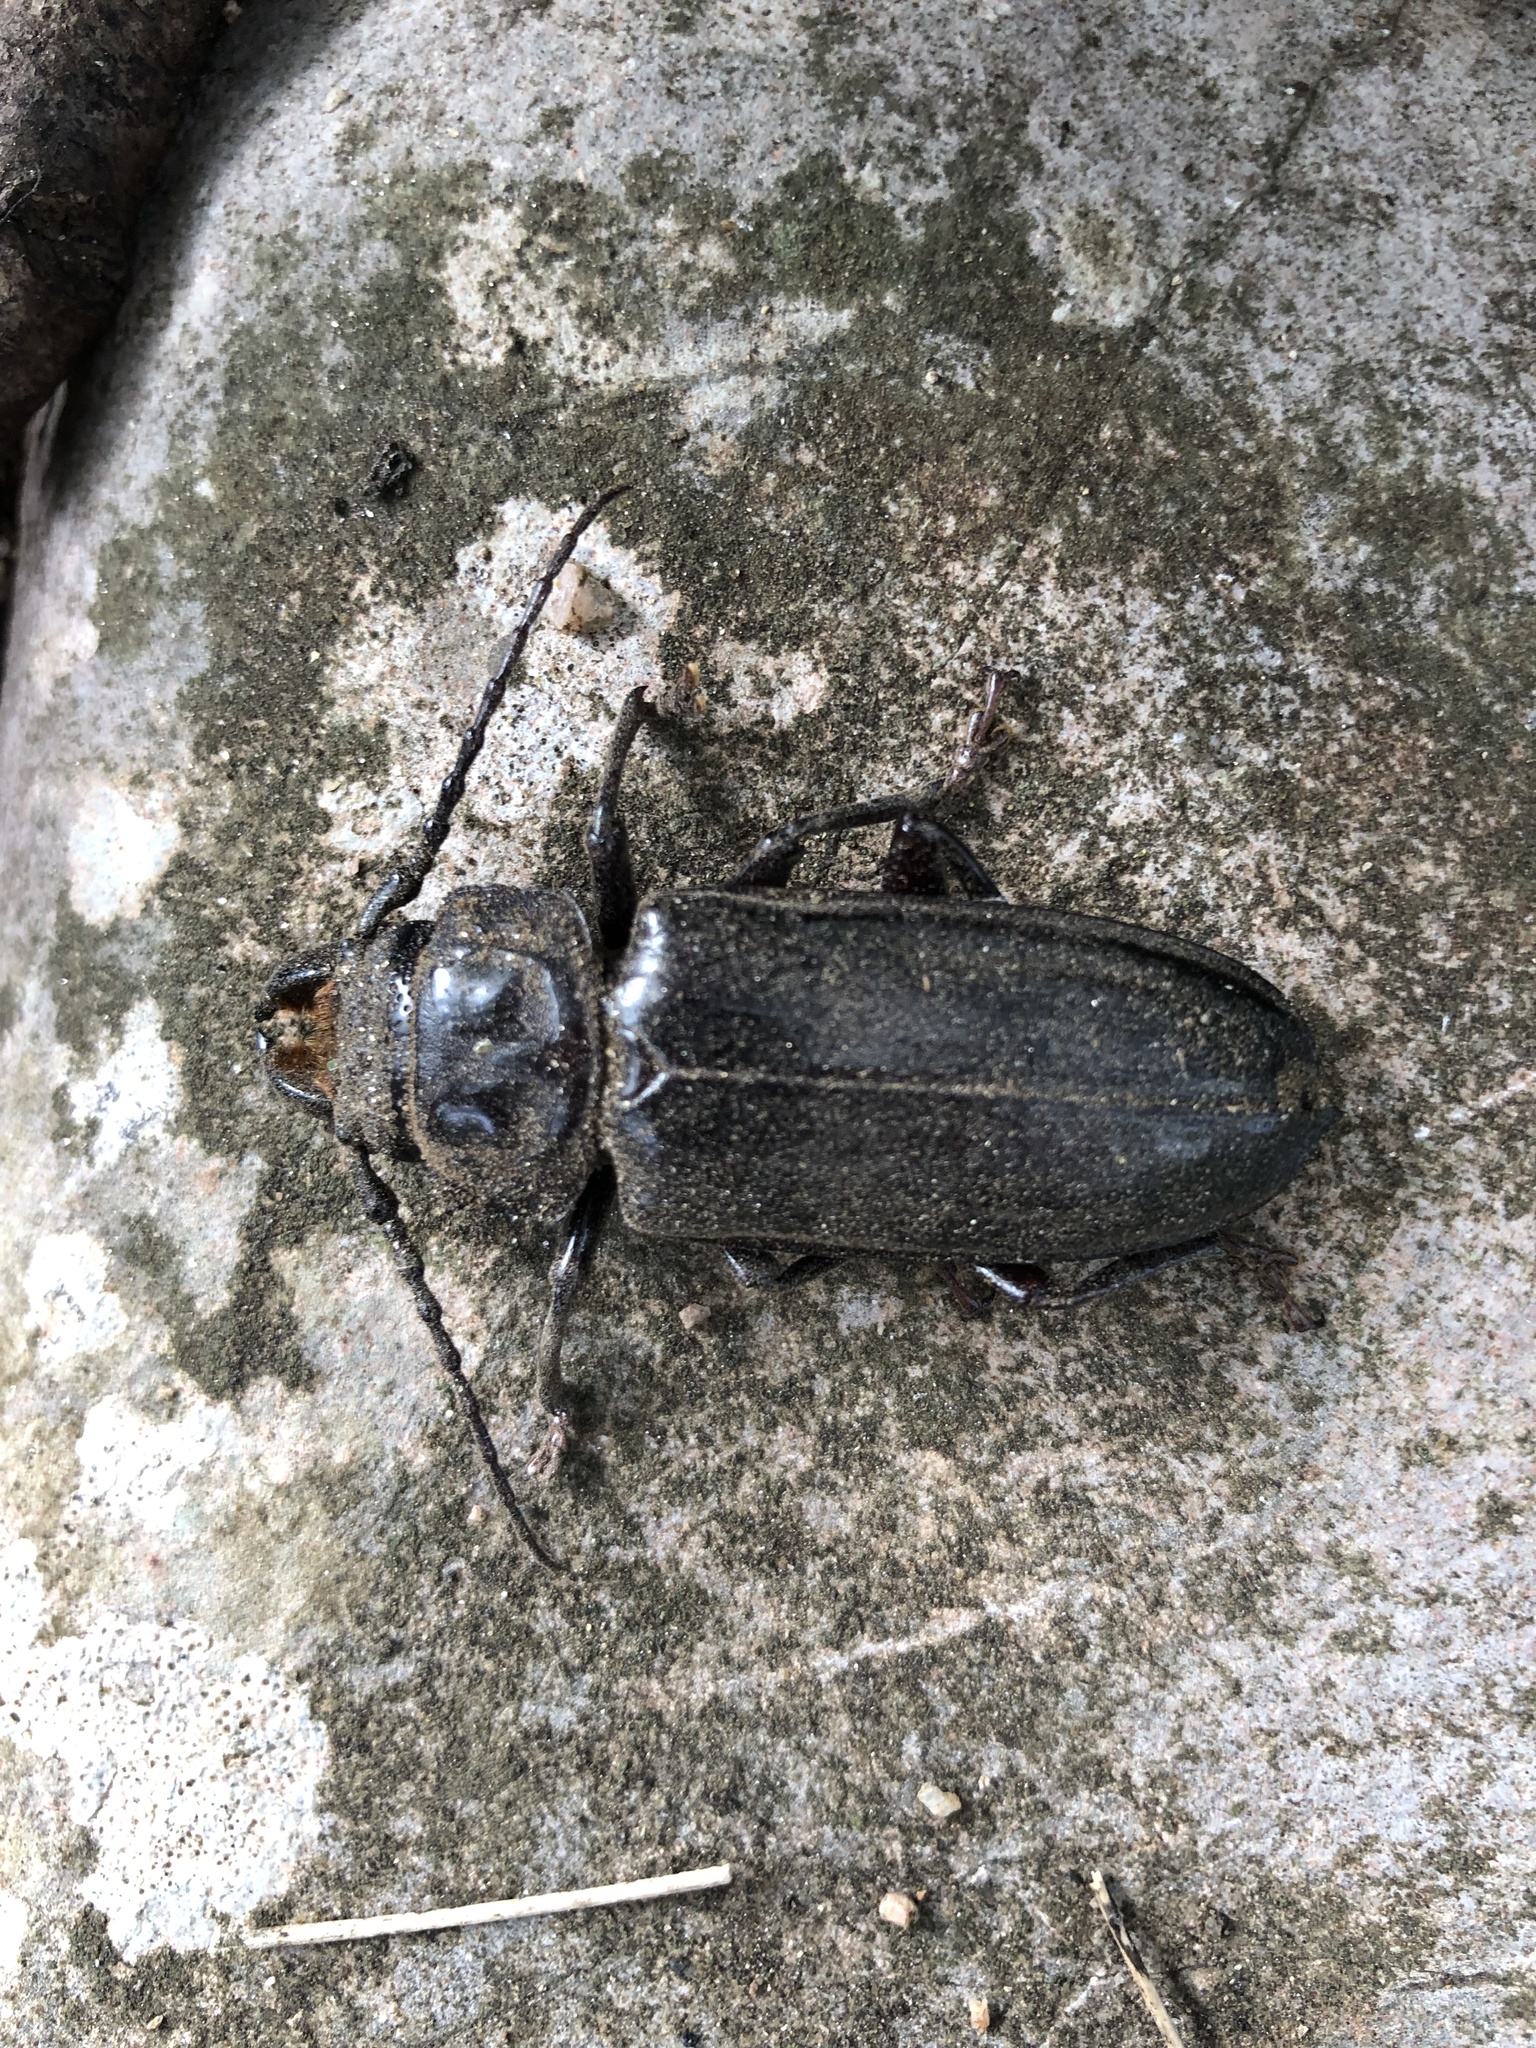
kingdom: Animalia
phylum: Arthropoda
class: Insecta
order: Coleoptera
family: Cerambycidae
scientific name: Cerambycidae
